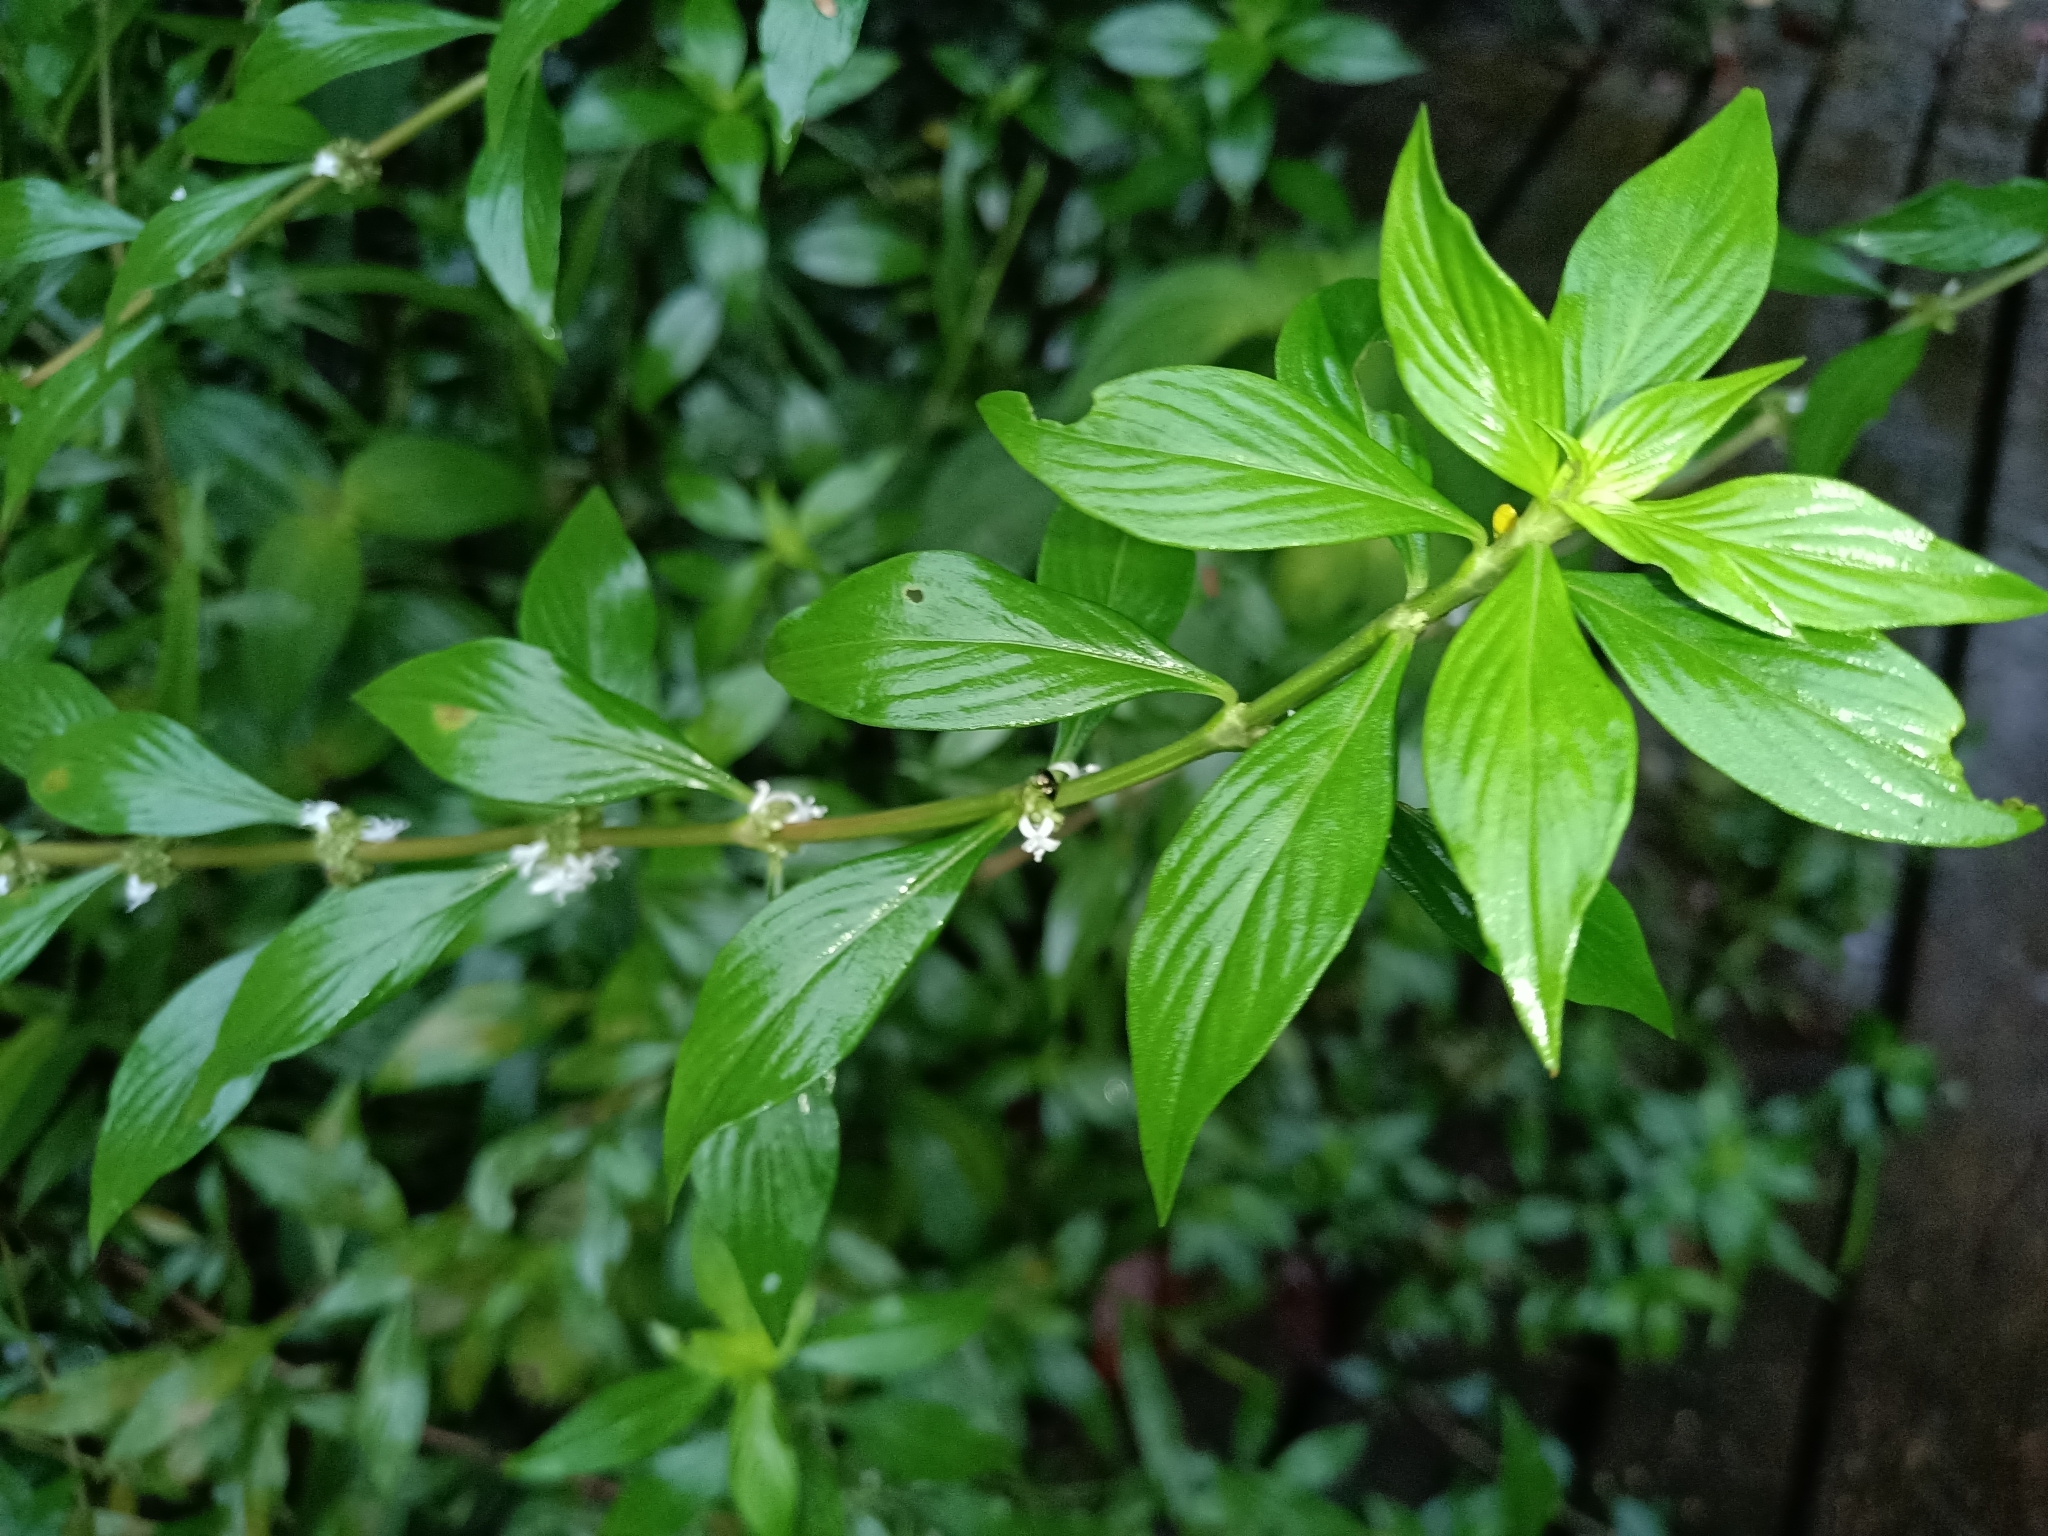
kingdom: Plantae
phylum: Tracheophyta
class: Magnoliopsida
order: Gentianales
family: Rubiaceae
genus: Spermacoce
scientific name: Spermacoce ocymifolia
